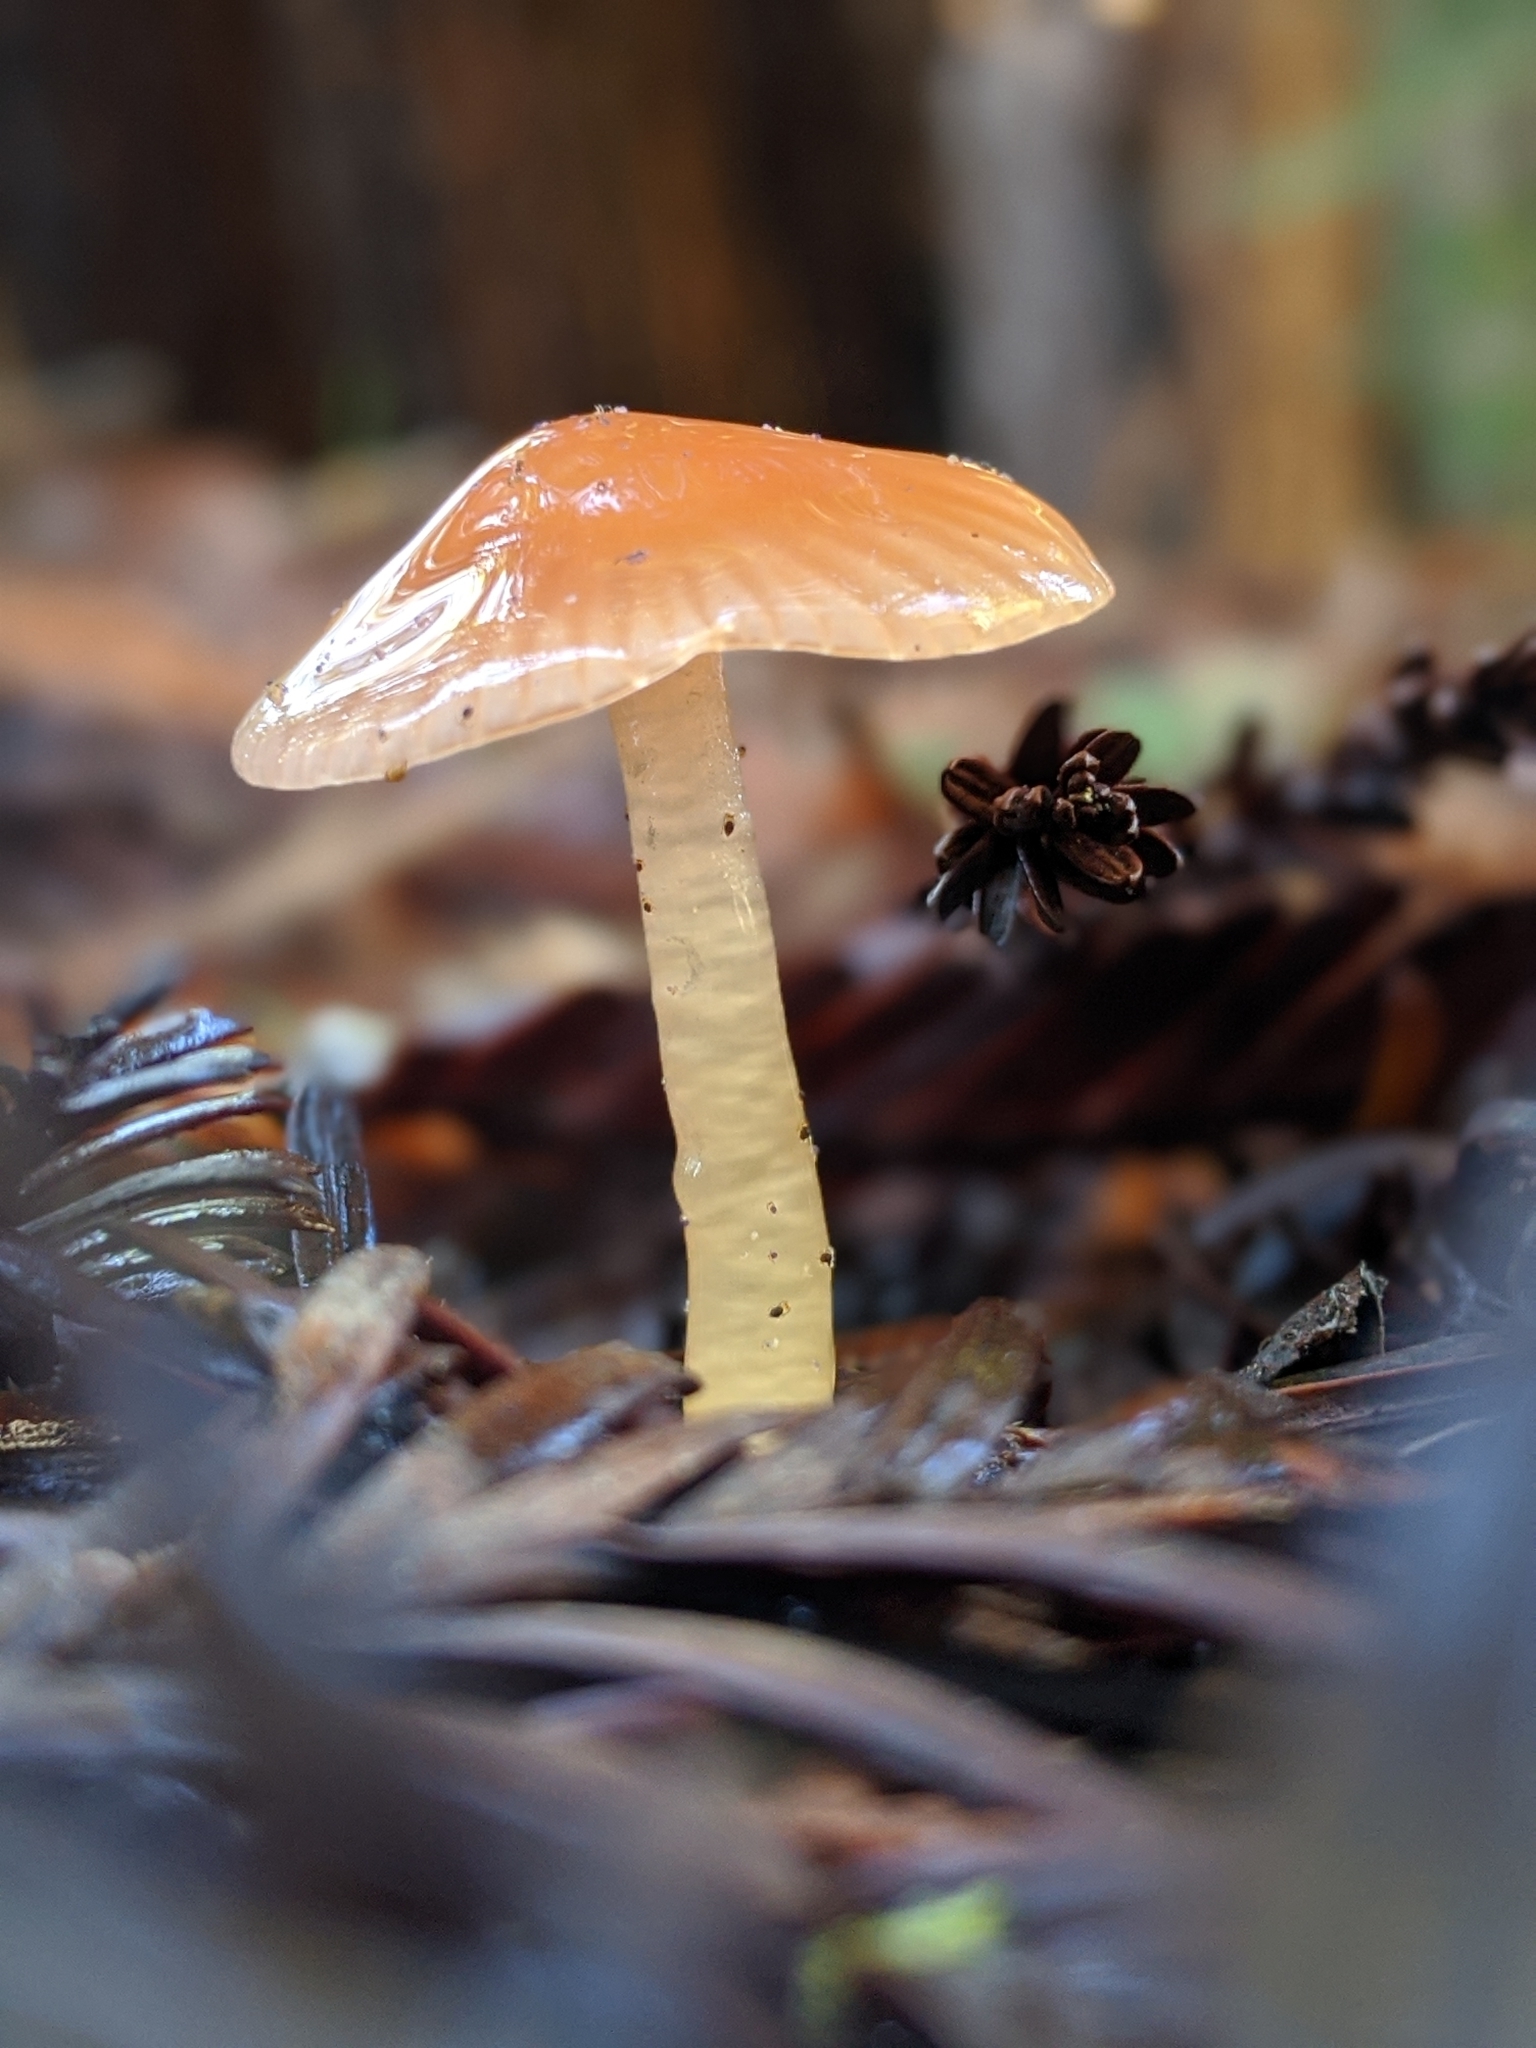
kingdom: Fungi
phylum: Basidiomycota
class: Agaricomycetes
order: Agaricales
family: Hygrophoraceae
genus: Gliophorus
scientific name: Gliophorus psittacinus
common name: Parrot wax-cap
